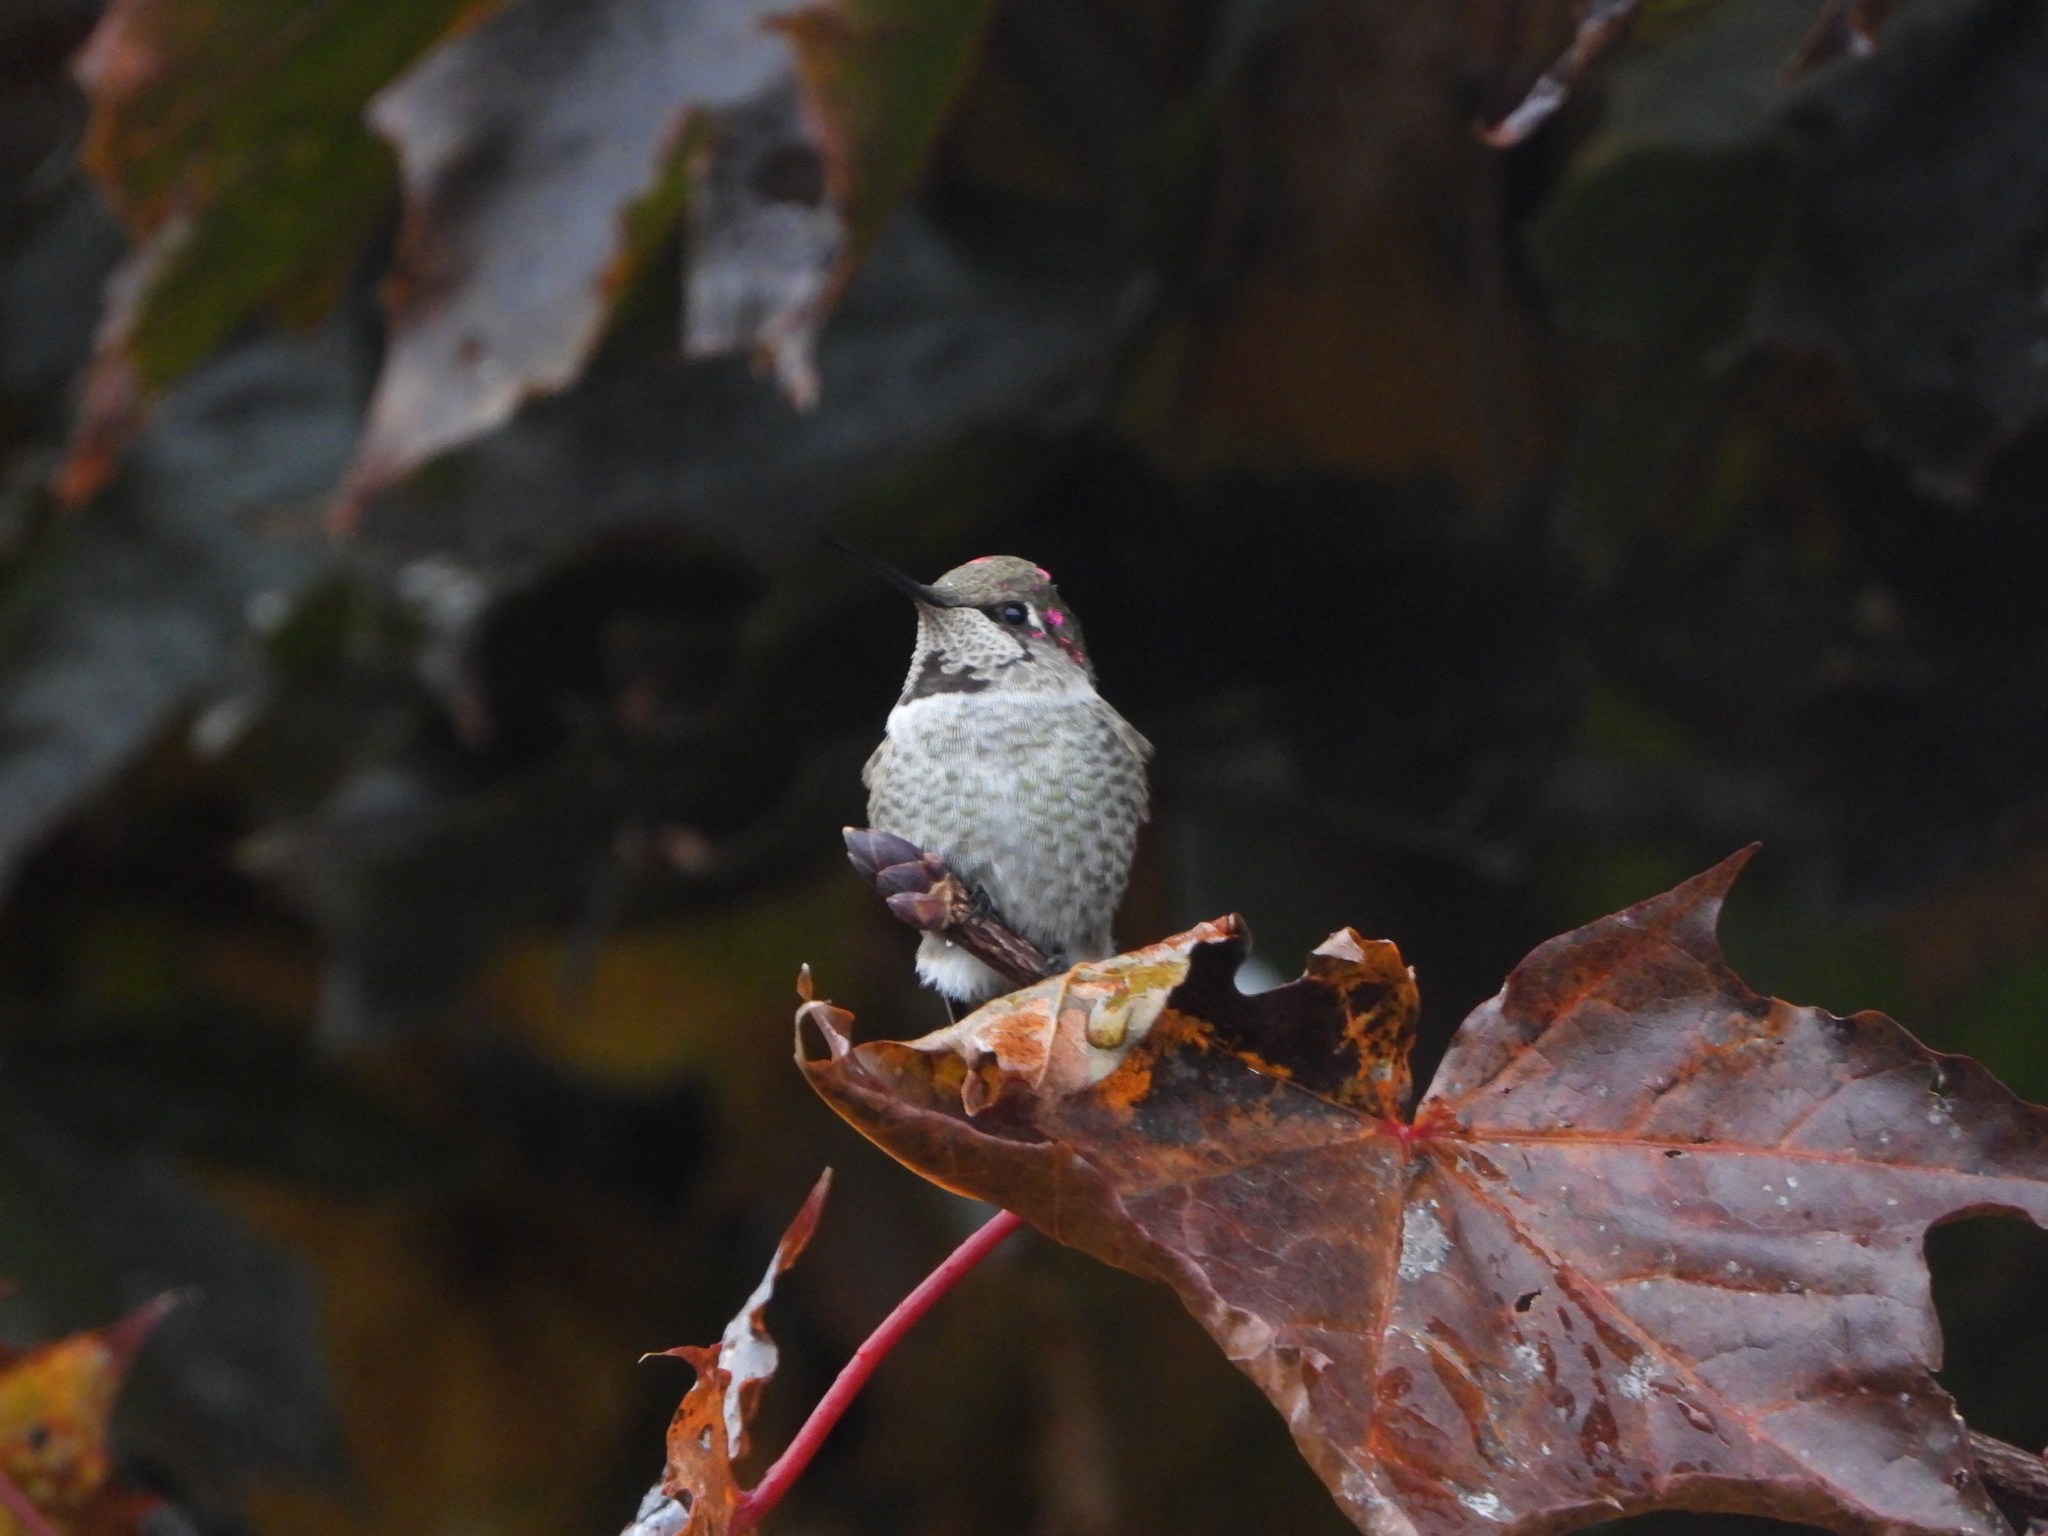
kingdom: Animalia
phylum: Chordata
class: Aves
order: Apodiformes
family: Trochilidae
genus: Calypte
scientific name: Calypte anna
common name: Anna's hummingbird
